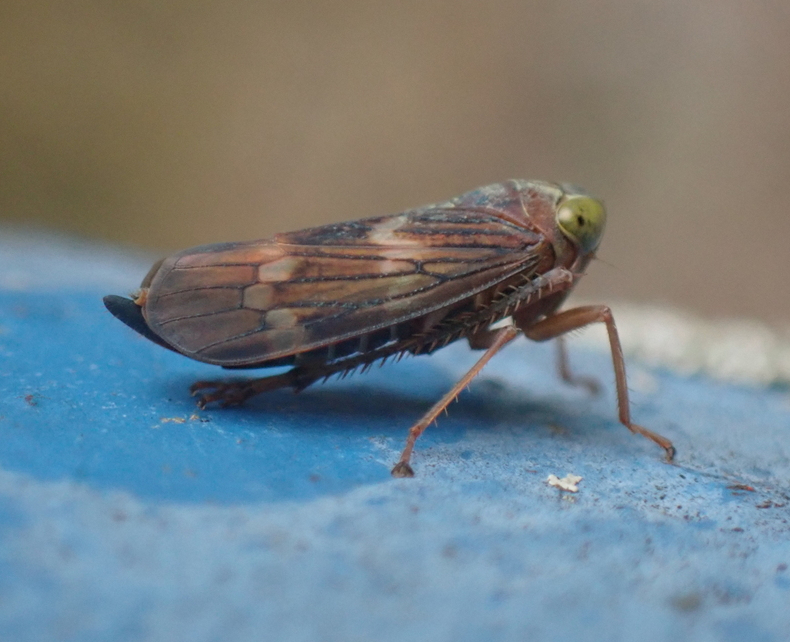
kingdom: Animalia
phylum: Arthropoda
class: Insecta
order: Hemiptera
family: Cicadellidae
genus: Jikradia
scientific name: Jikradia olitoria
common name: Coppery leafhopper
